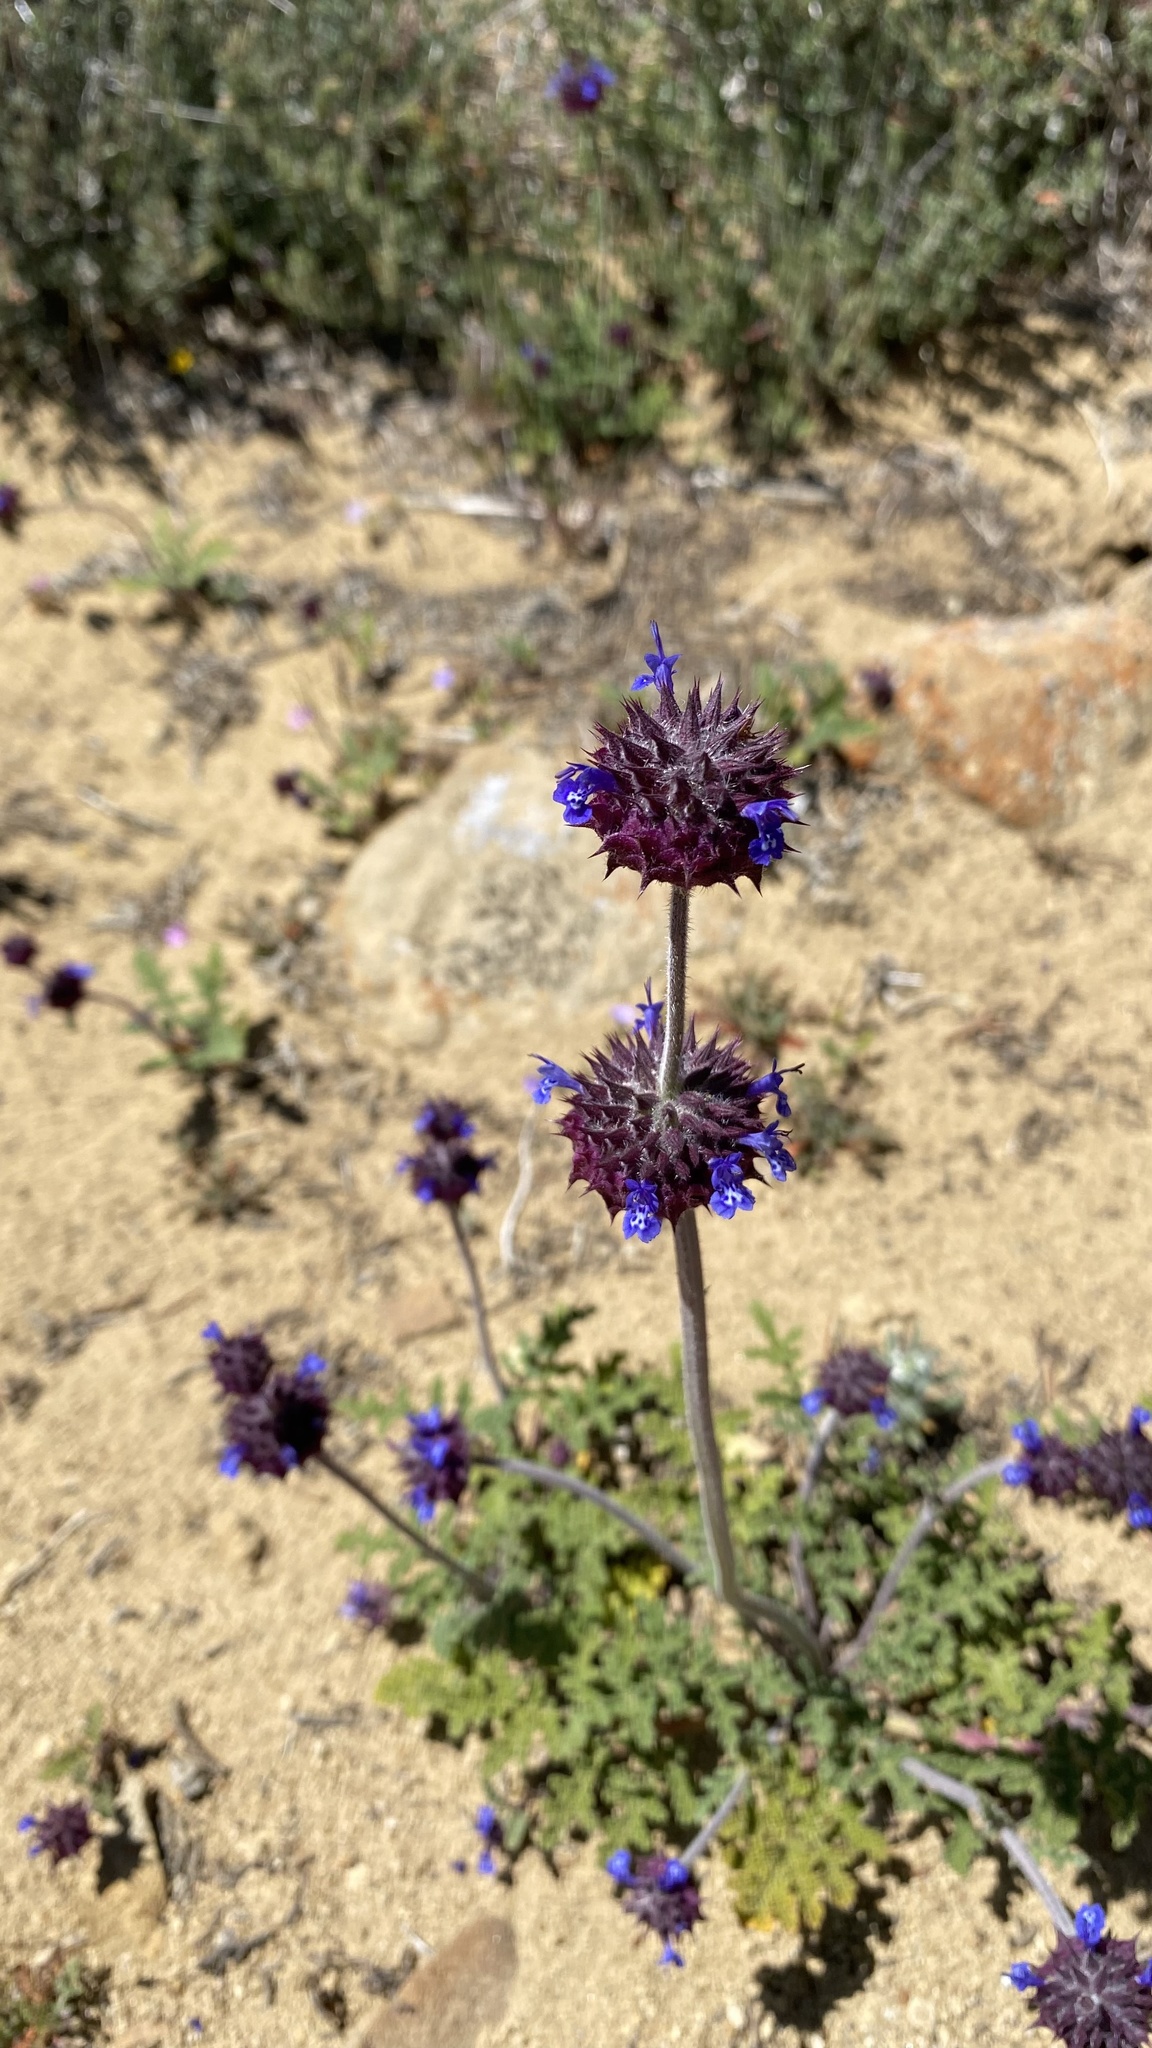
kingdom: Plantae
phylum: Tracheophyta
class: Magnoliopsida
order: Lamiales
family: Lamiaceae
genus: Salvia
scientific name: Salvia columbariae
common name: Chia
